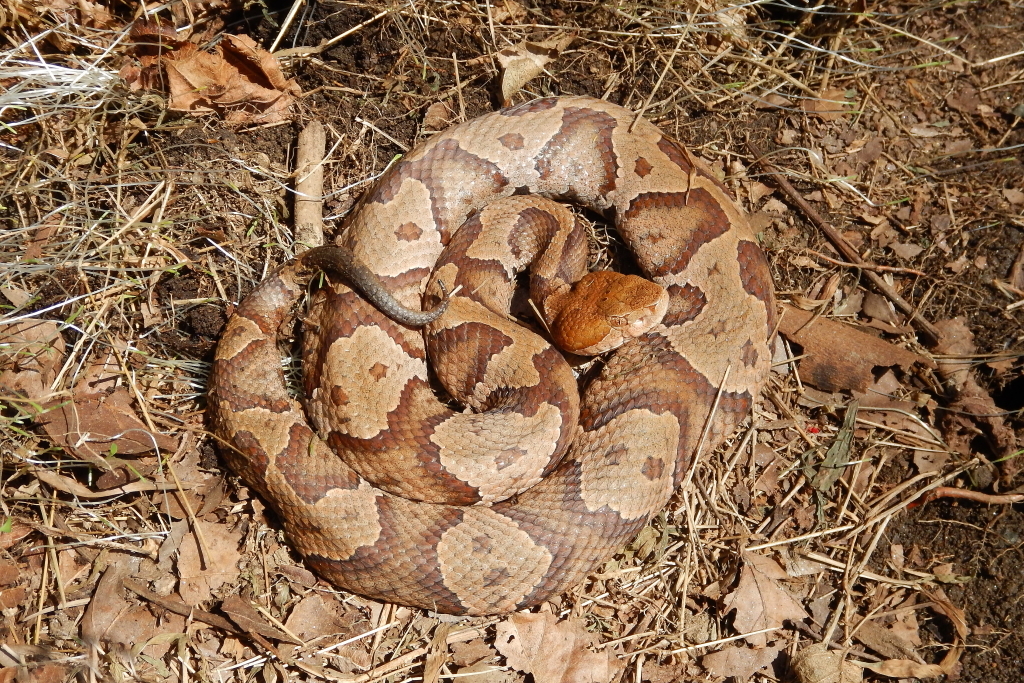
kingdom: Animalia
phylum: Chordata
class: Squamata
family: Viperidae
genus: Agkistrodon
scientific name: Agkistrodon contortrix
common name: Northern copperhead
